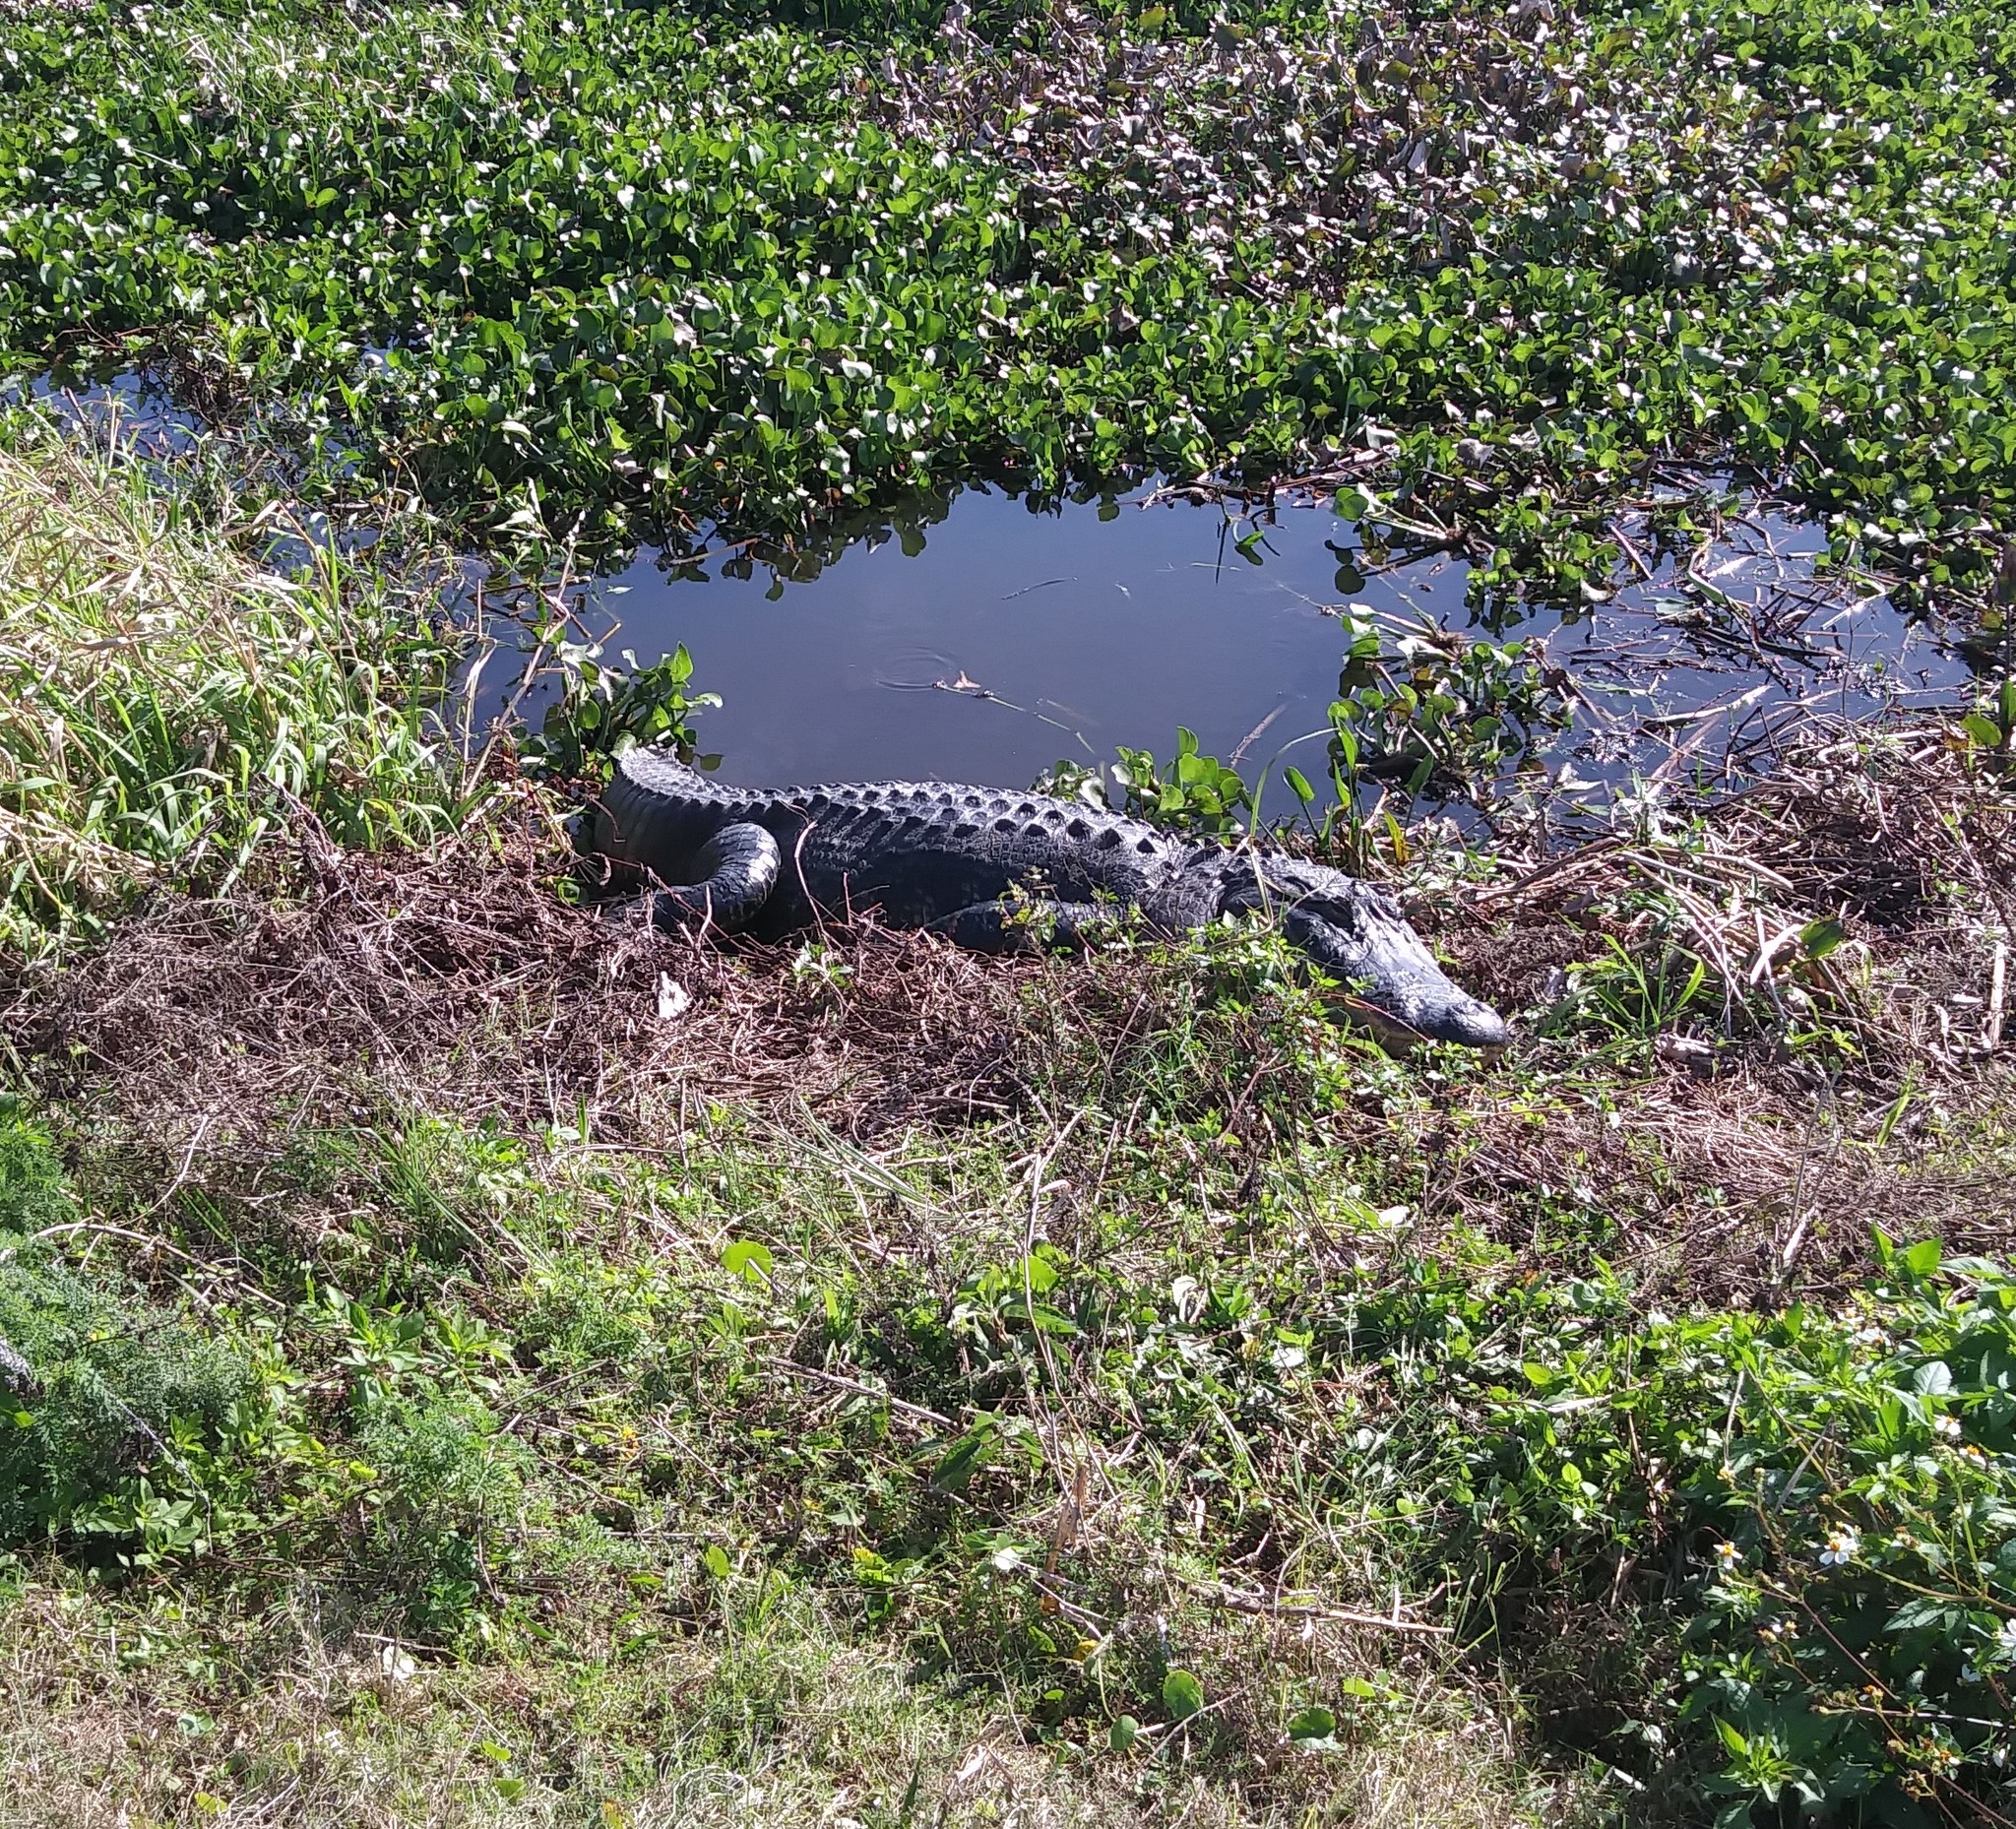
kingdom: Animalia
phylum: Chordata
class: Crocodylia
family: Alligatoridae
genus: Alligator
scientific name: Alligator mississippiensis
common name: American alligator
